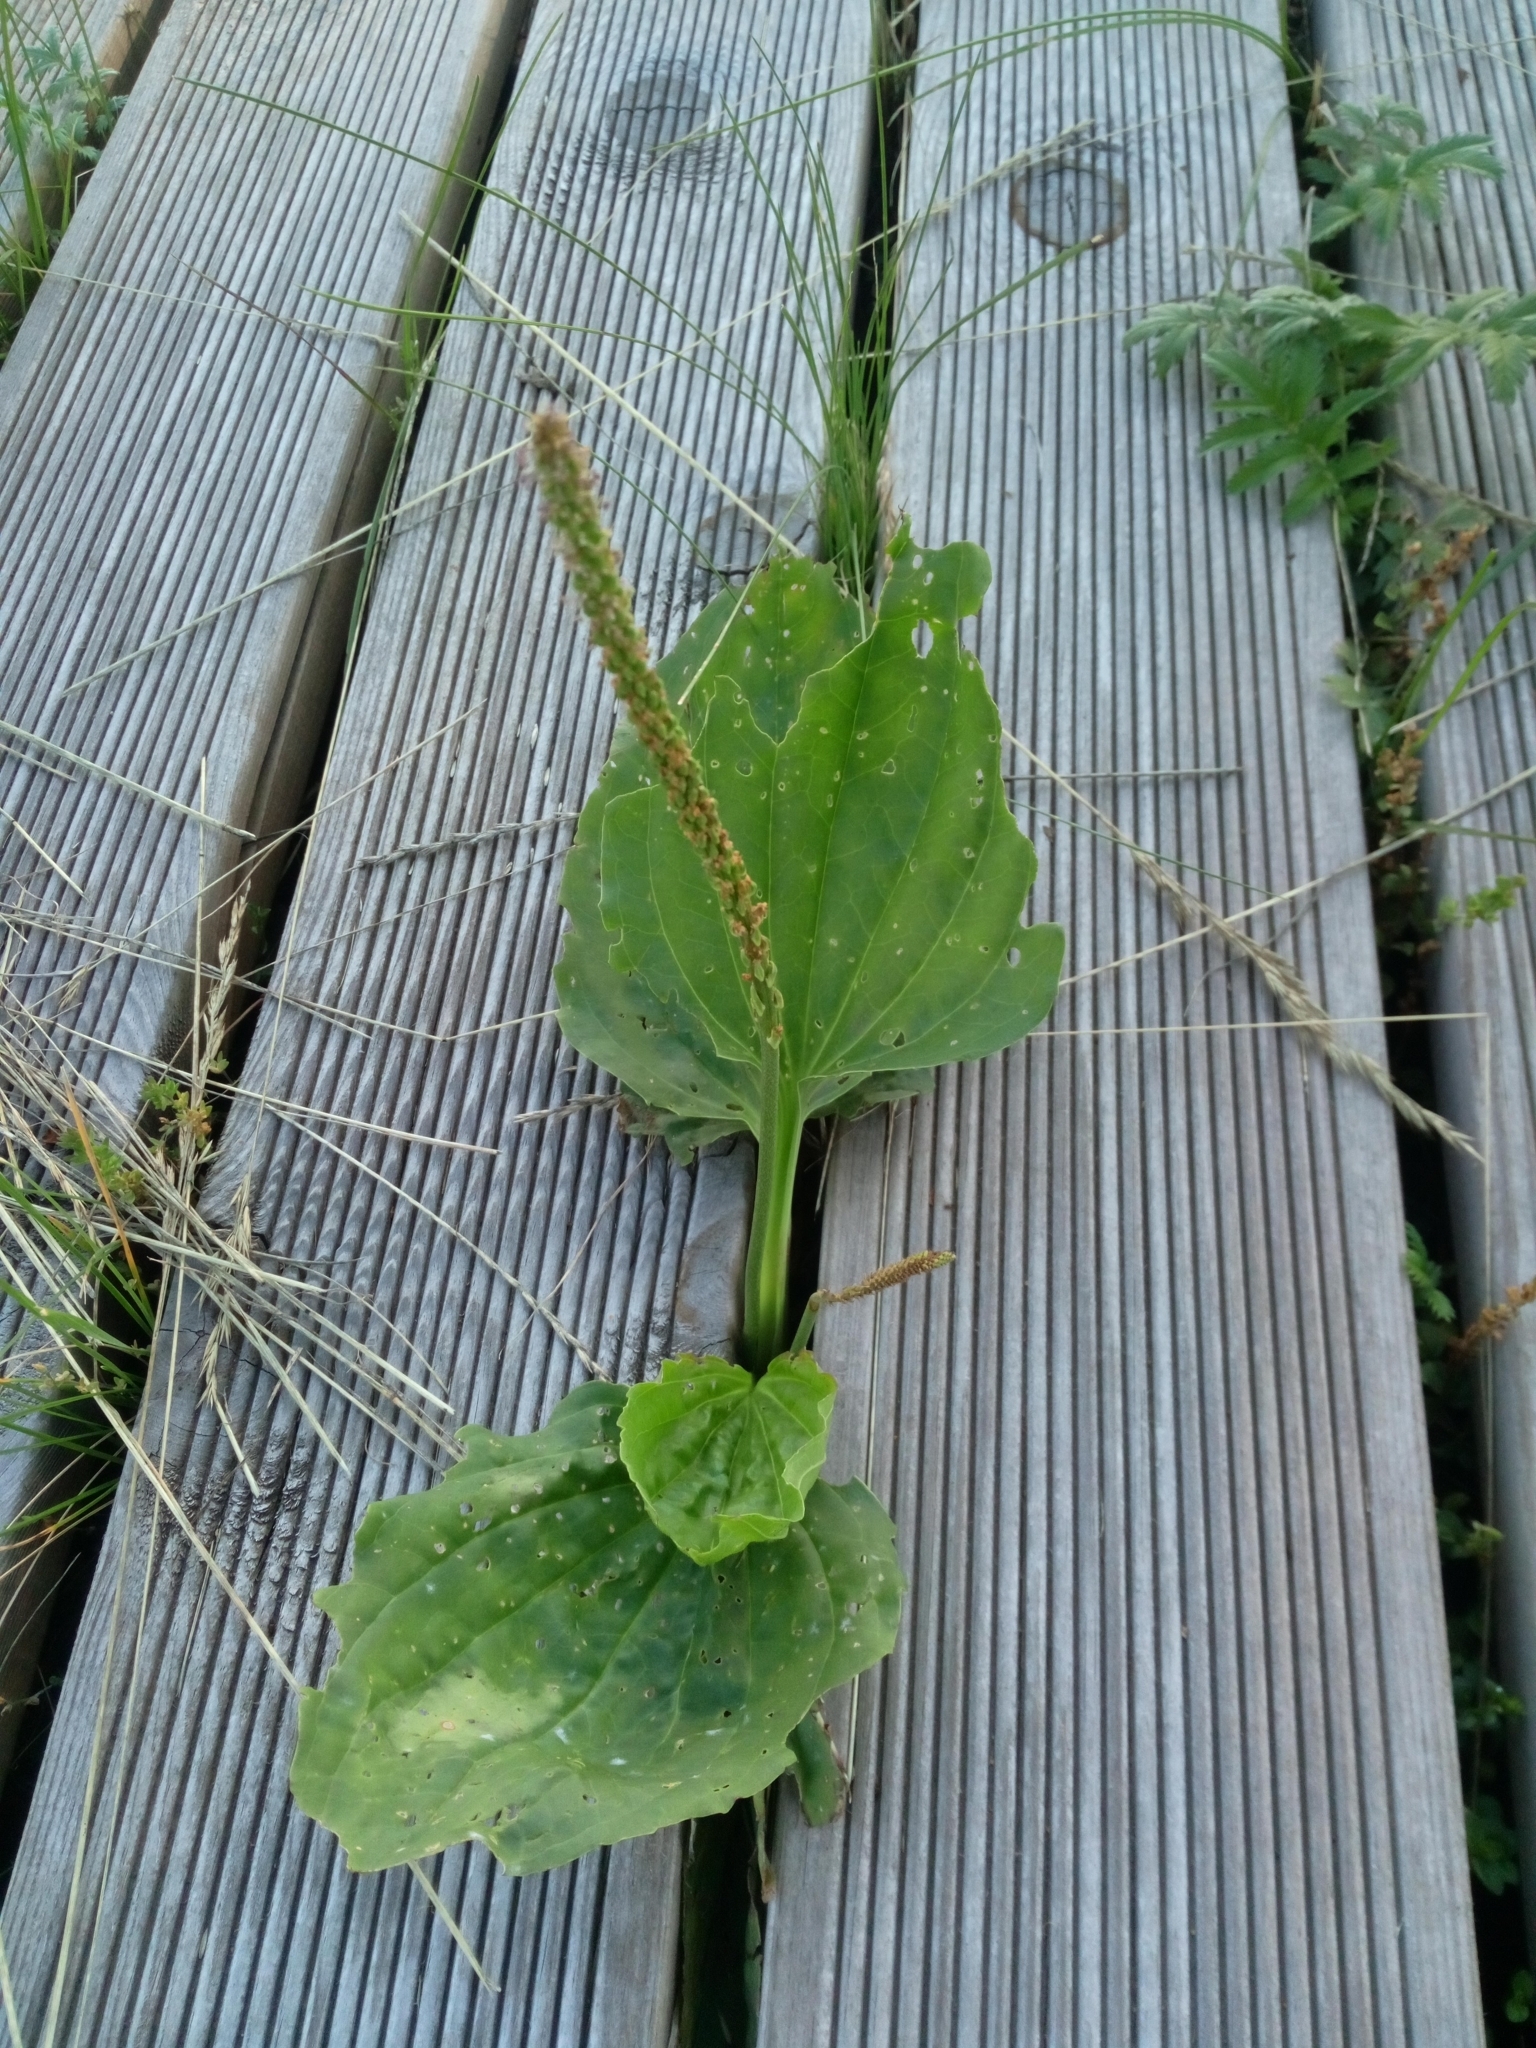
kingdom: Plantae
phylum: Tracheophyta
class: Magnoliopsida
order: Lamiales
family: Plantaginaceae
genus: Plantago
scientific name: Plantago major
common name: Common plantain
